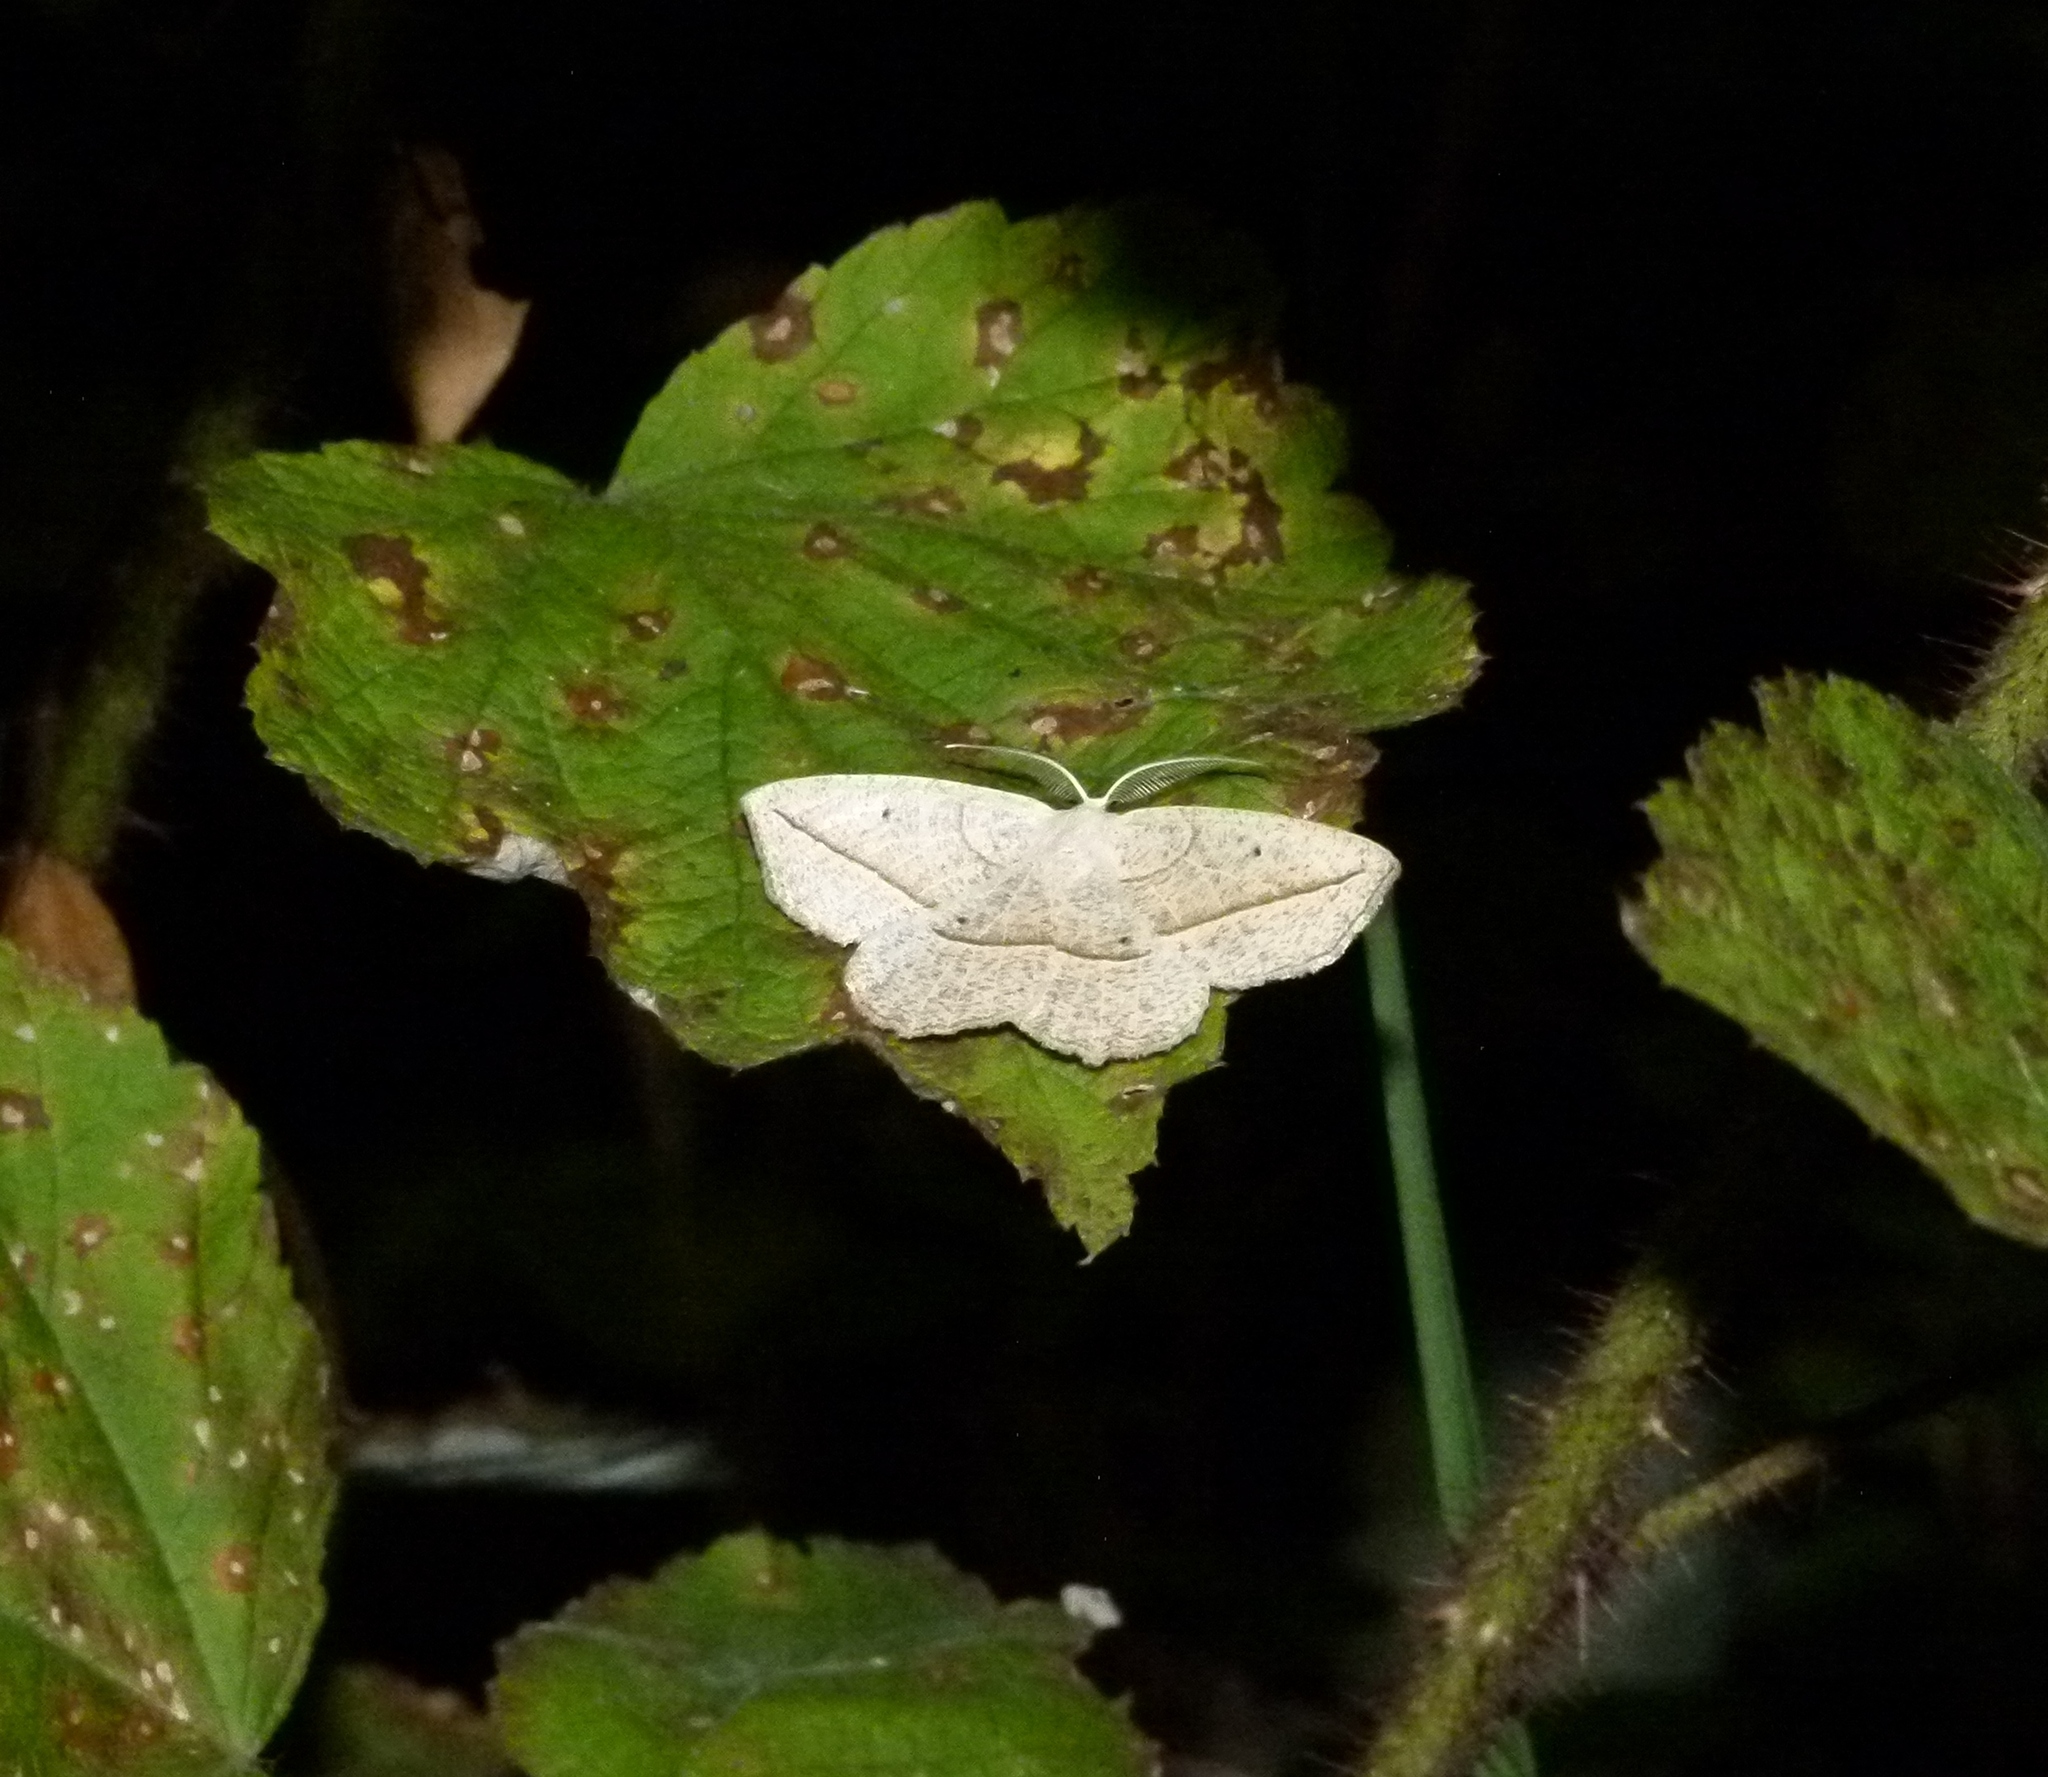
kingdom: Animalia
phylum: Arthropoda
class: Insecta
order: Lepidoptera
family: Geometridae
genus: Eusarca
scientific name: Eusarca confusaria
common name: Confused eusarca
